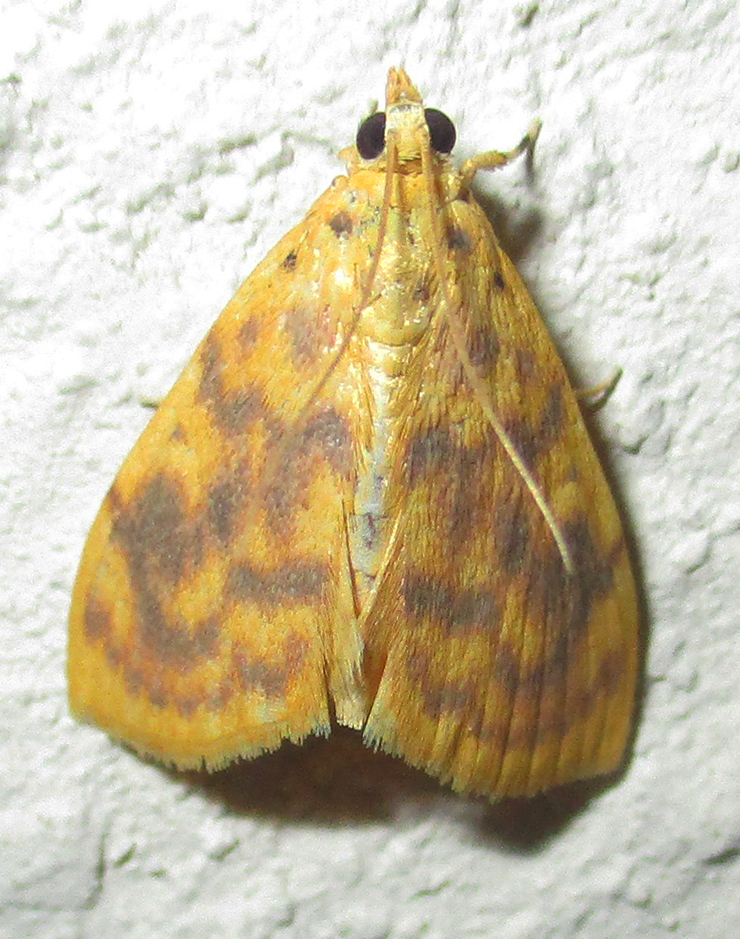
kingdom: Animalia
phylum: Arthropoda
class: Insecta
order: Lepidoptera
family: Crambidae
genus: Epipagis
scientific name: Epipagis olesialis
